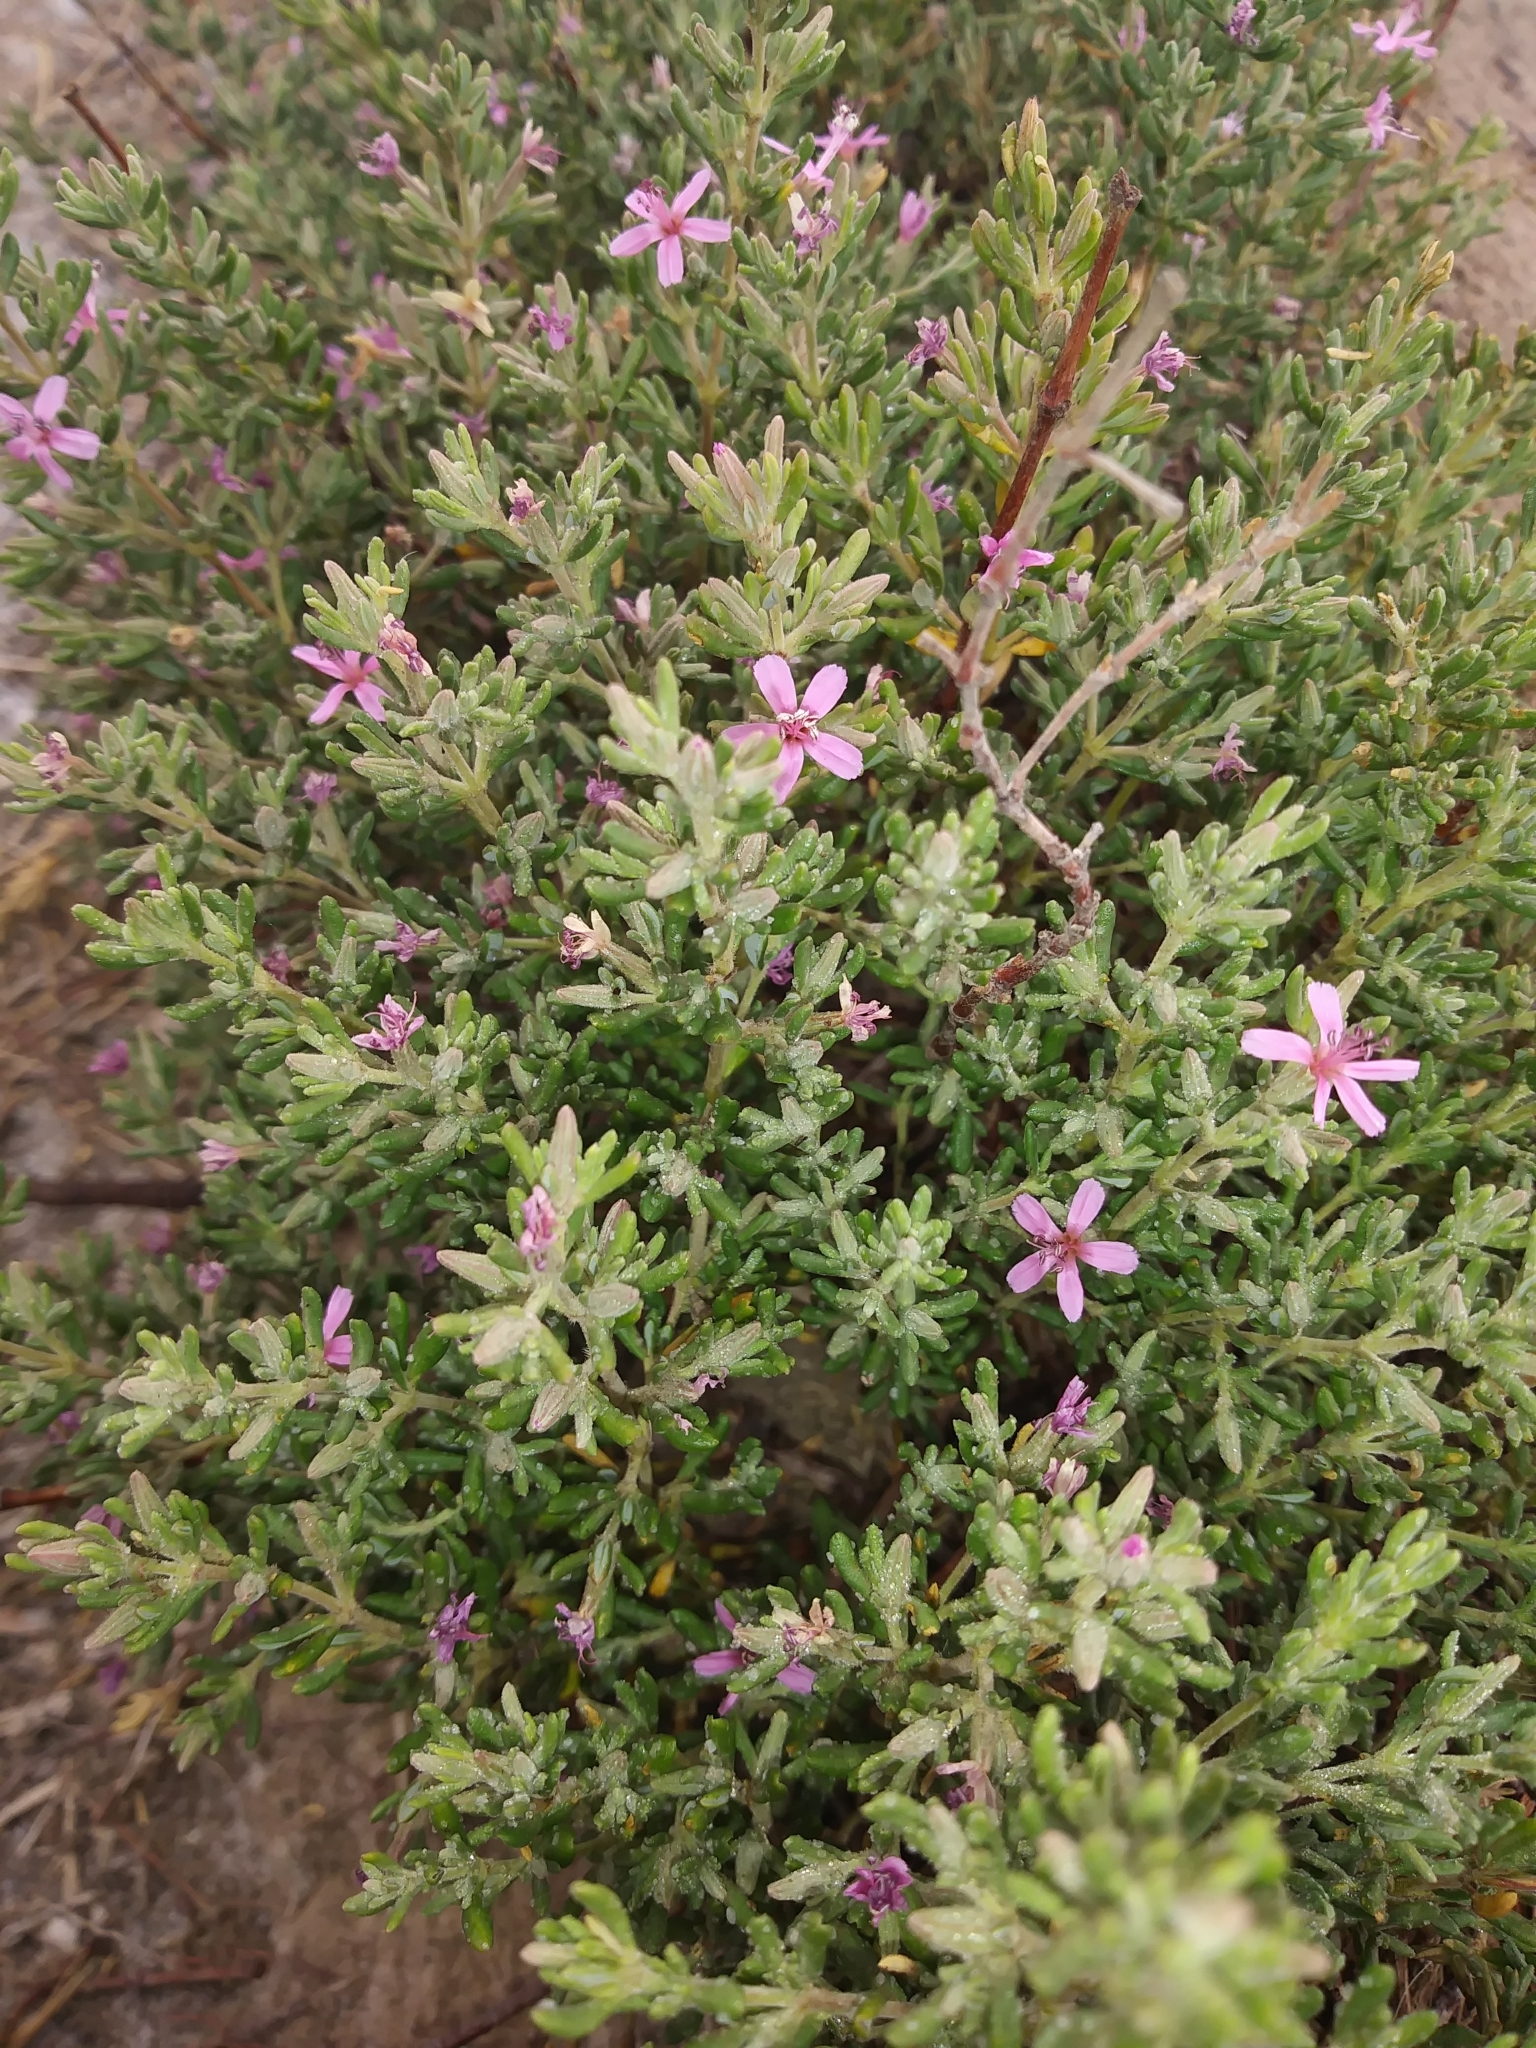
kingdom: Plantae
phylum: Tracheophyta
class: Magnoliopsida
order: Caryophyllales
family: Frankeniaceae
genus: Frankenia
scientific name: Frankenia salina
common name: Alkali seaheath
